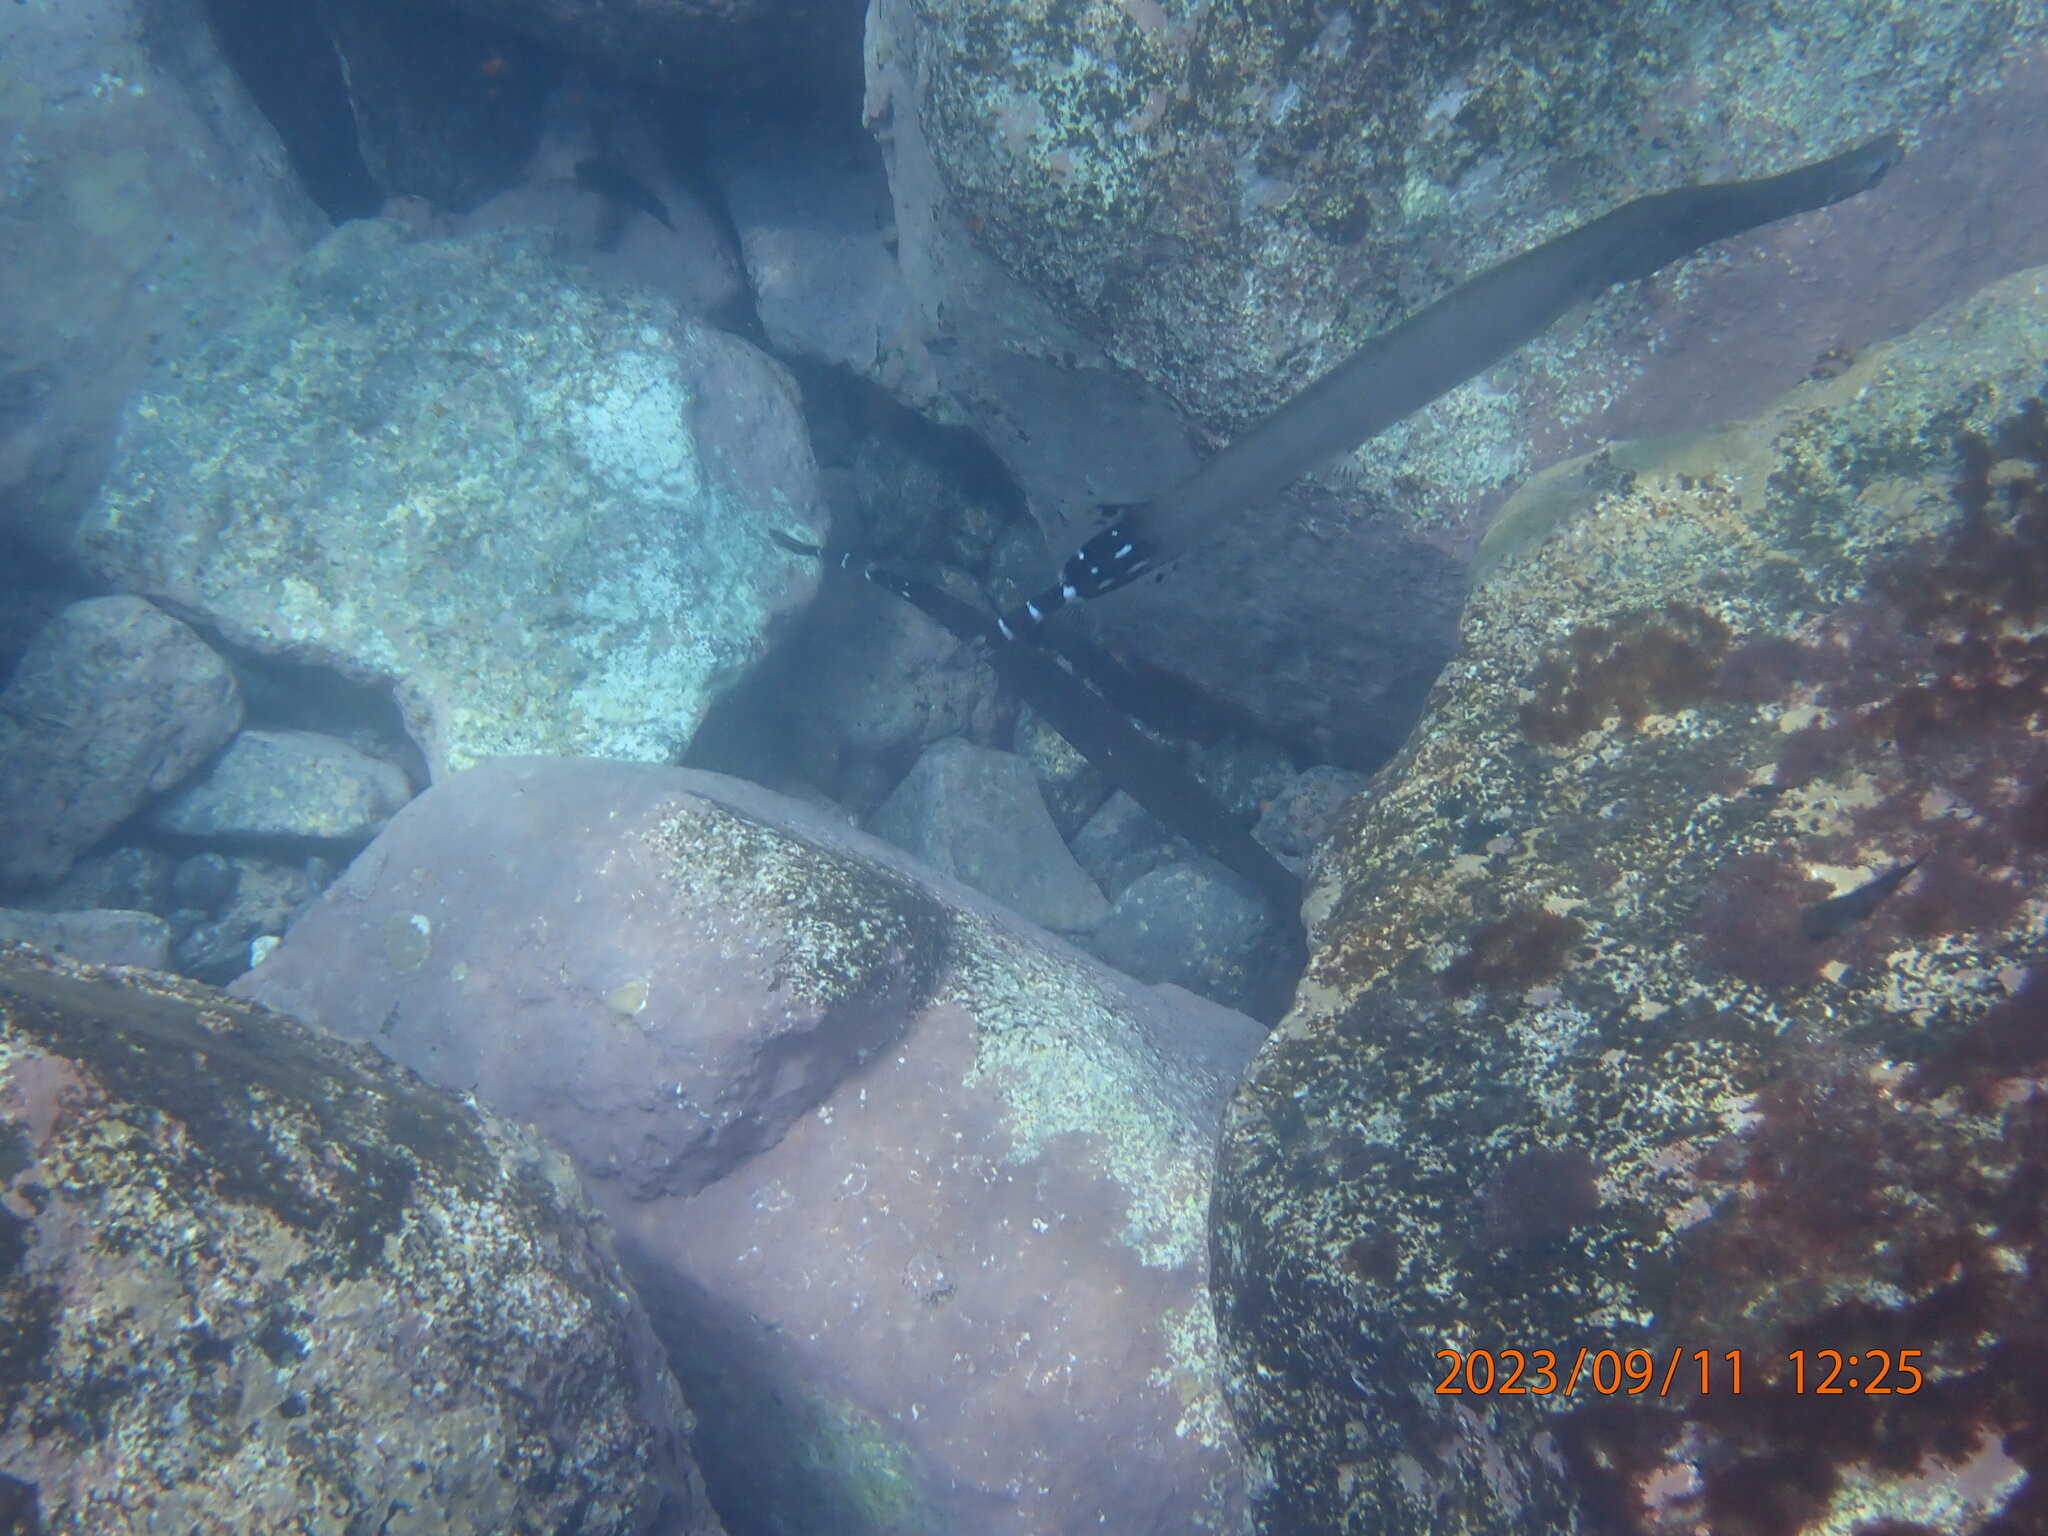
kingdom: Animalia
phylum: Chordata
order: Syngnathiformes
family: Aulostomidae
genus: Aulostomus
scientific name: Aulostomus strigosus
